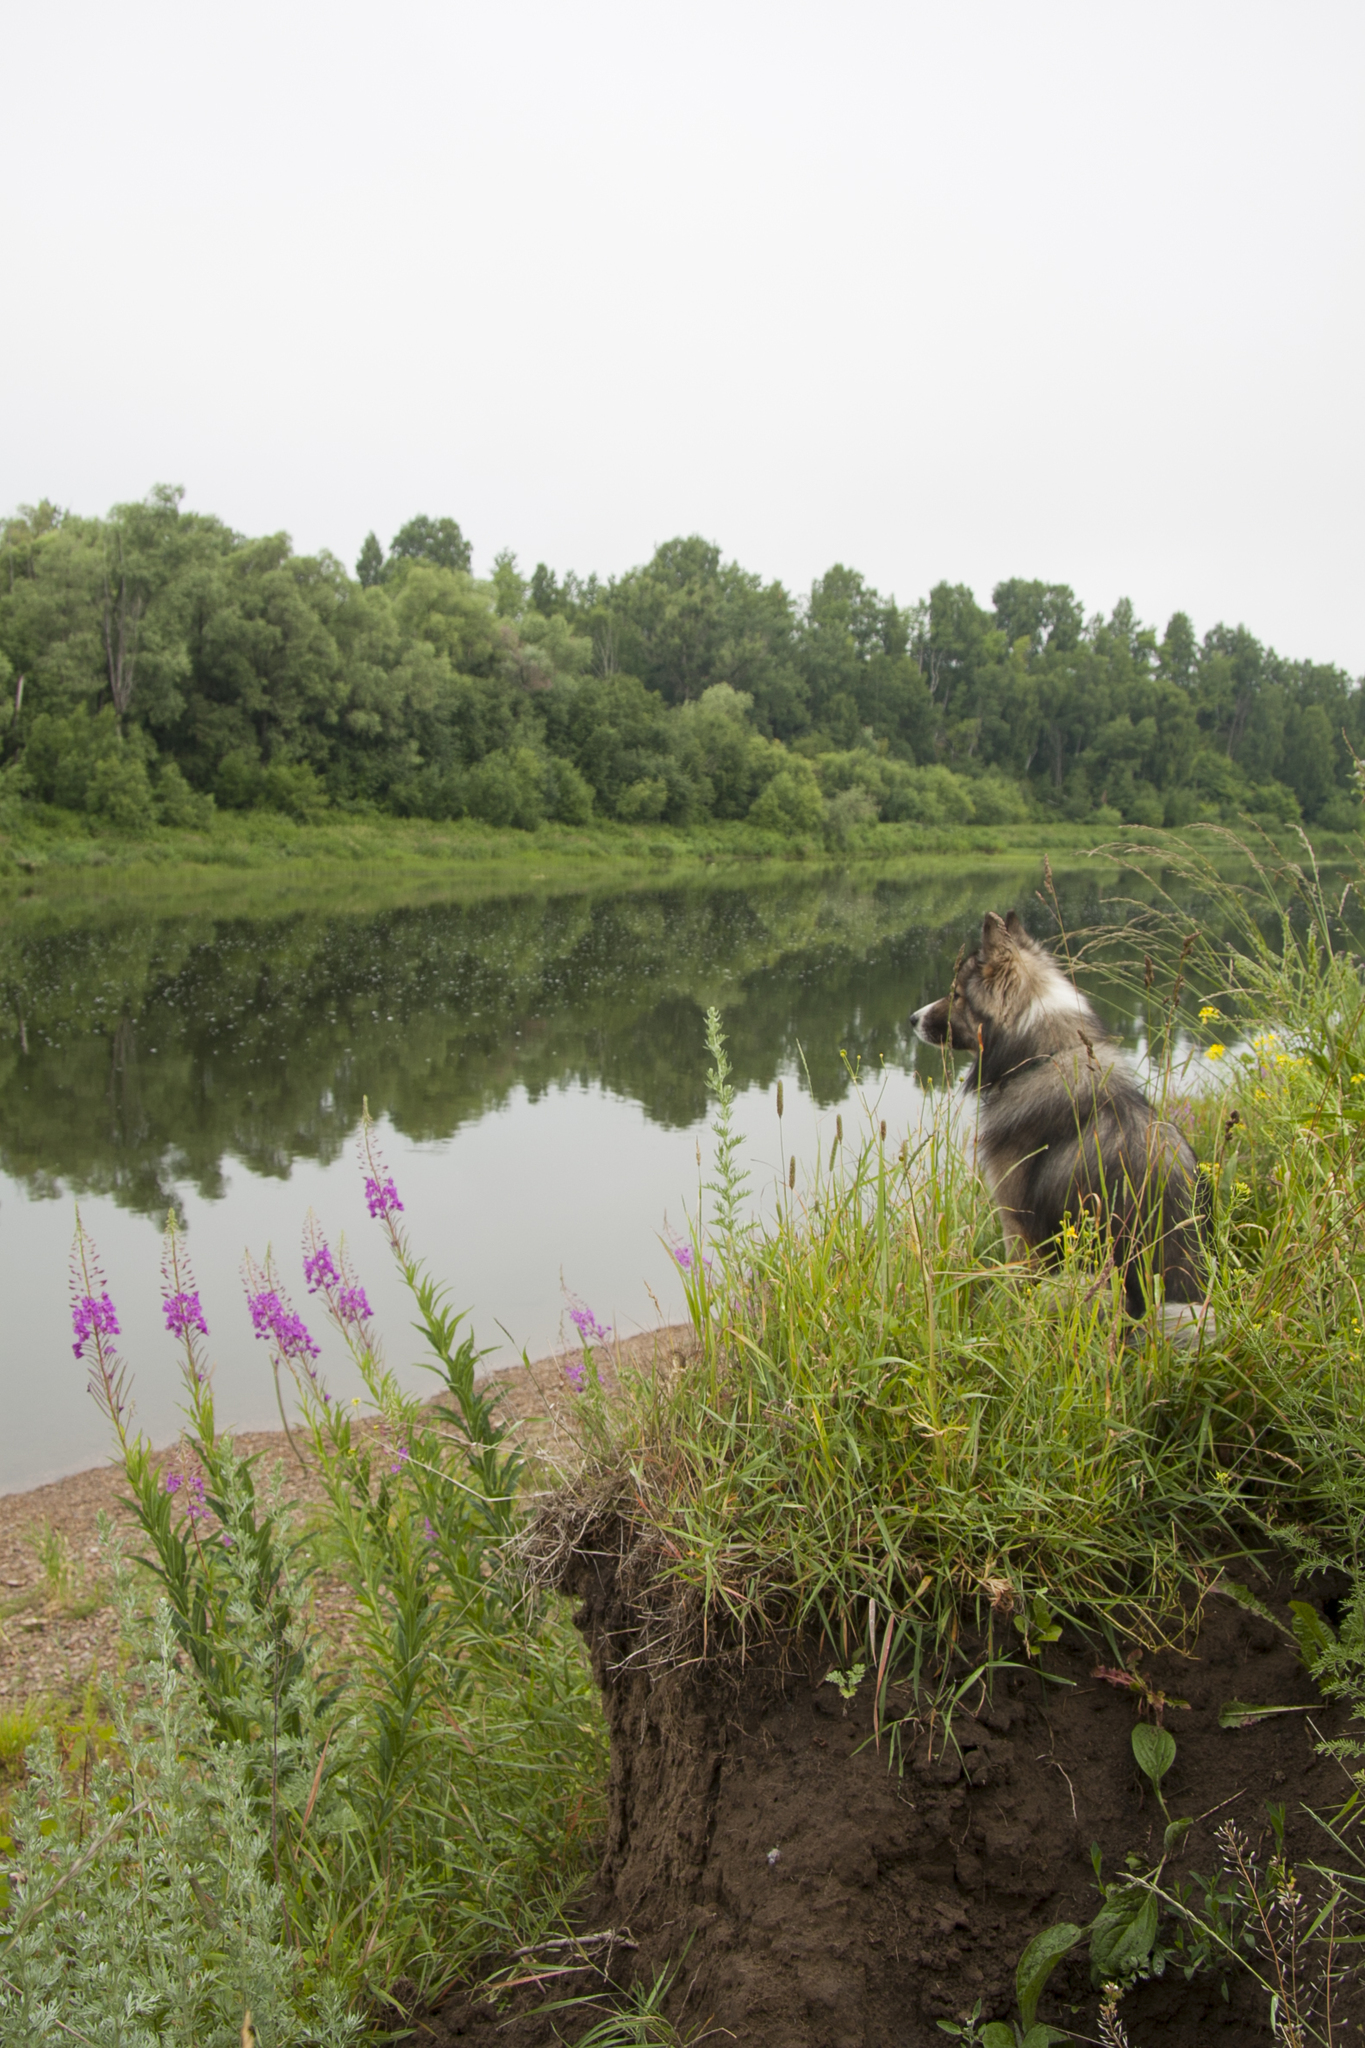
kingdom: Plantae
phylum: Tracheophyta
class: Magnoliopsida
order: Myrtales
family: Onagraceae
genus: Chamaenerion
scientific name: Chamaenerion angustifolium
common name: Fireweed
